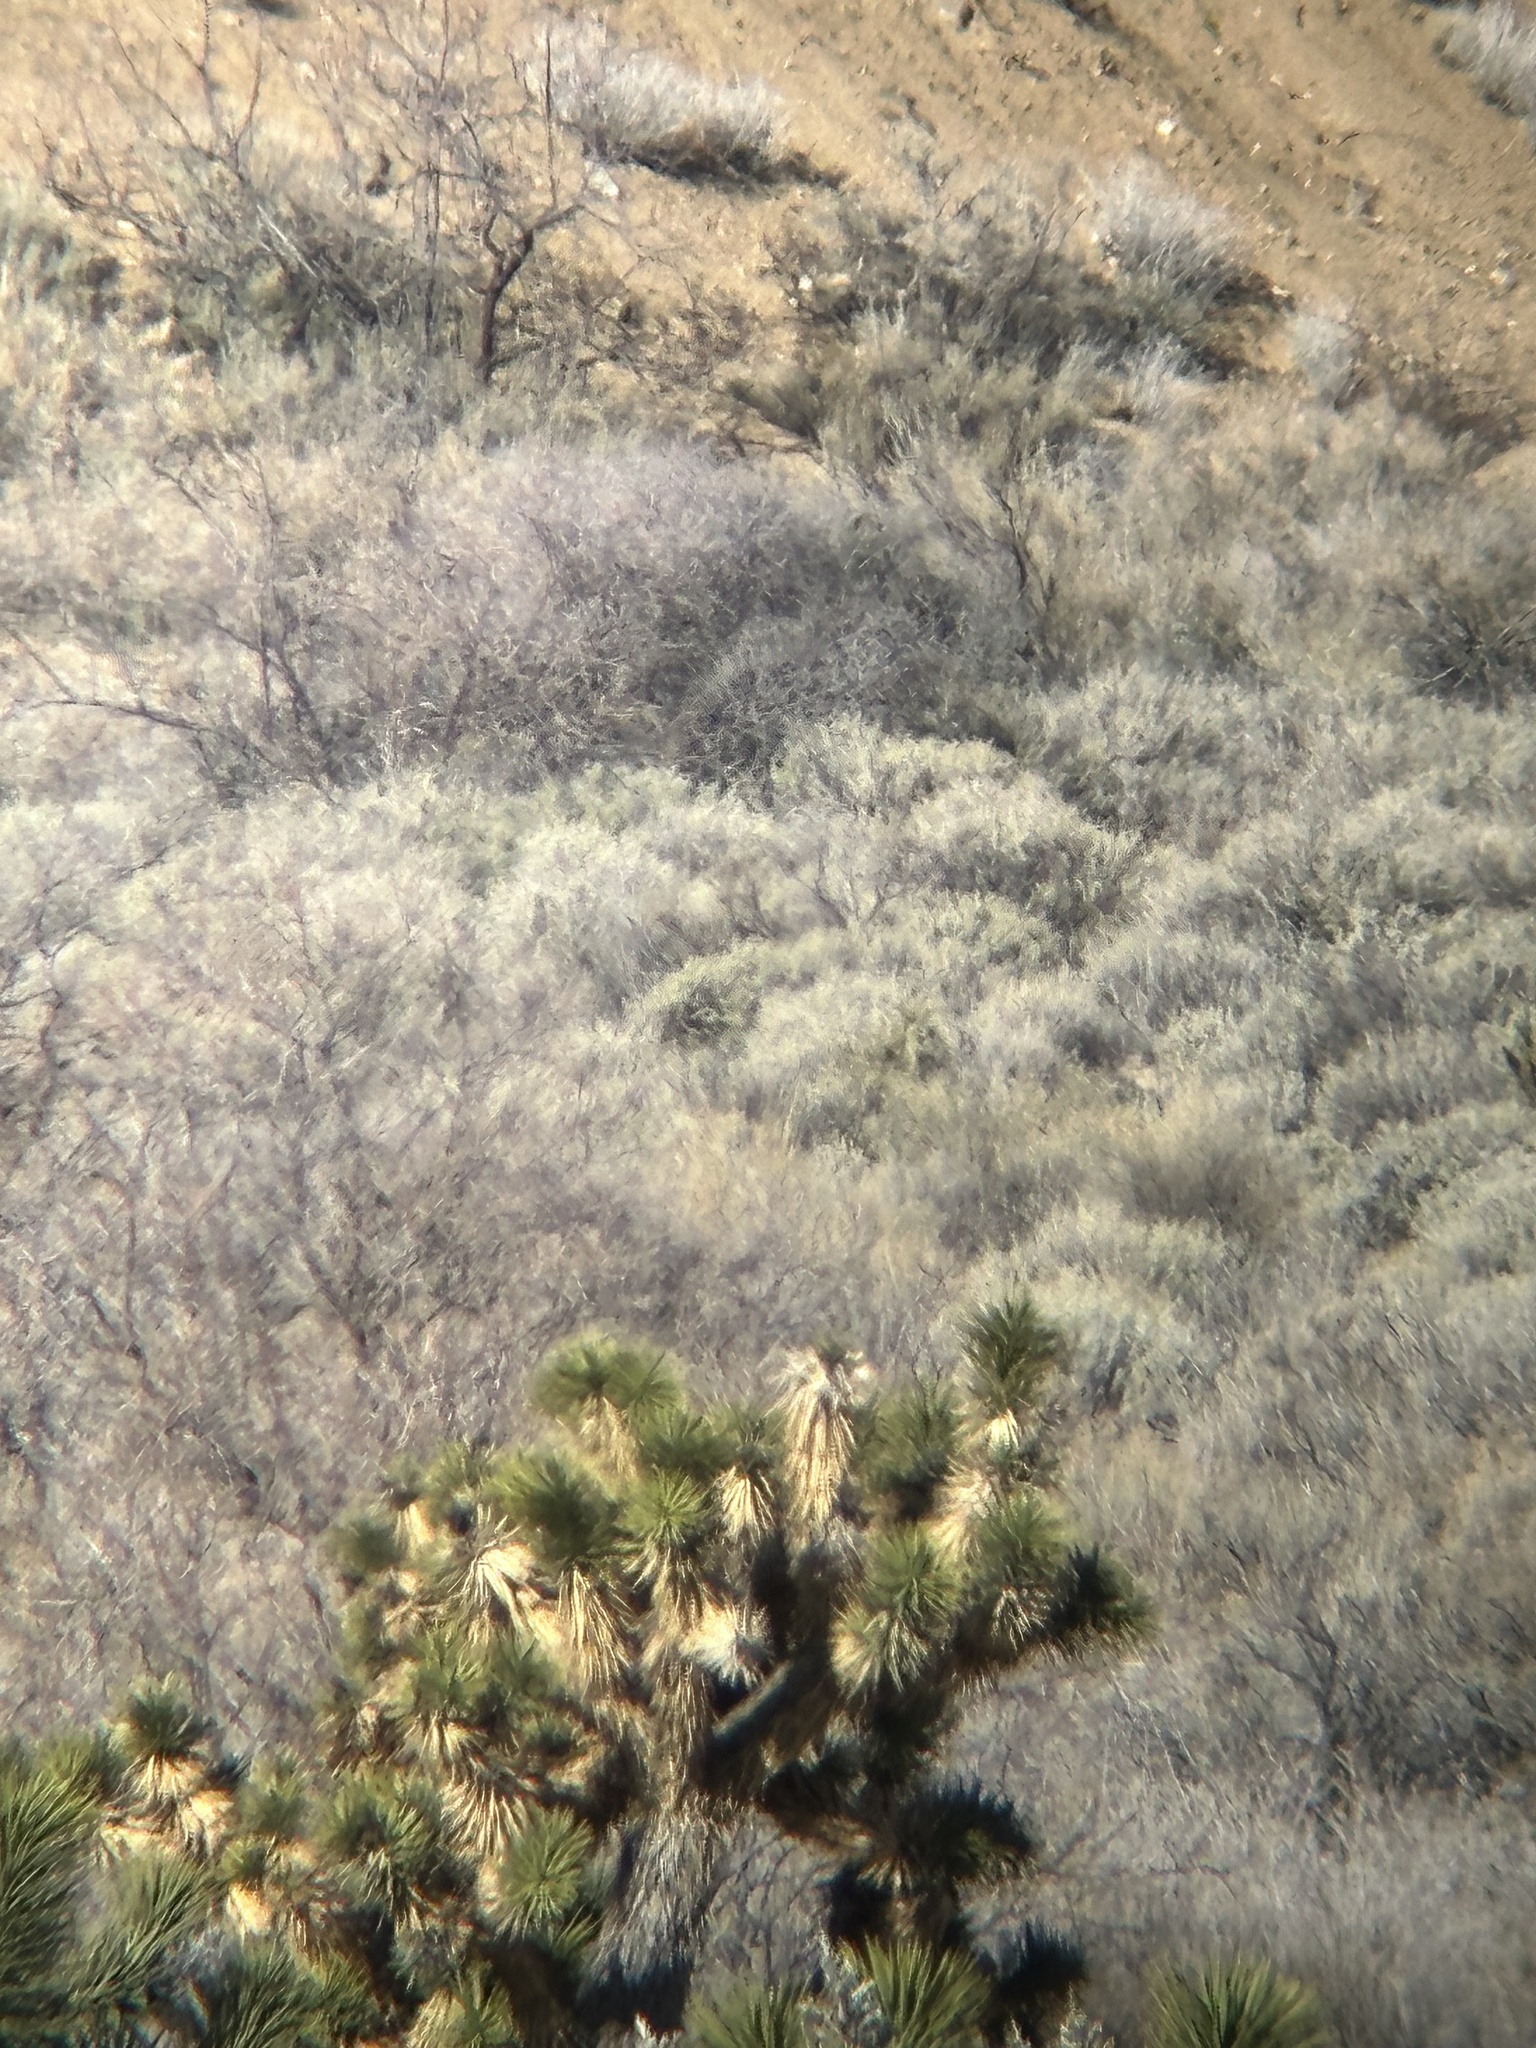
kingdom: Plantae
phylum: Tracheophyta
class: Liliopsida
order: Asparagales
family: Asparagaceae
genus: Yucca
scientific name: Yucca brevifolia
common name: Joshua tree
